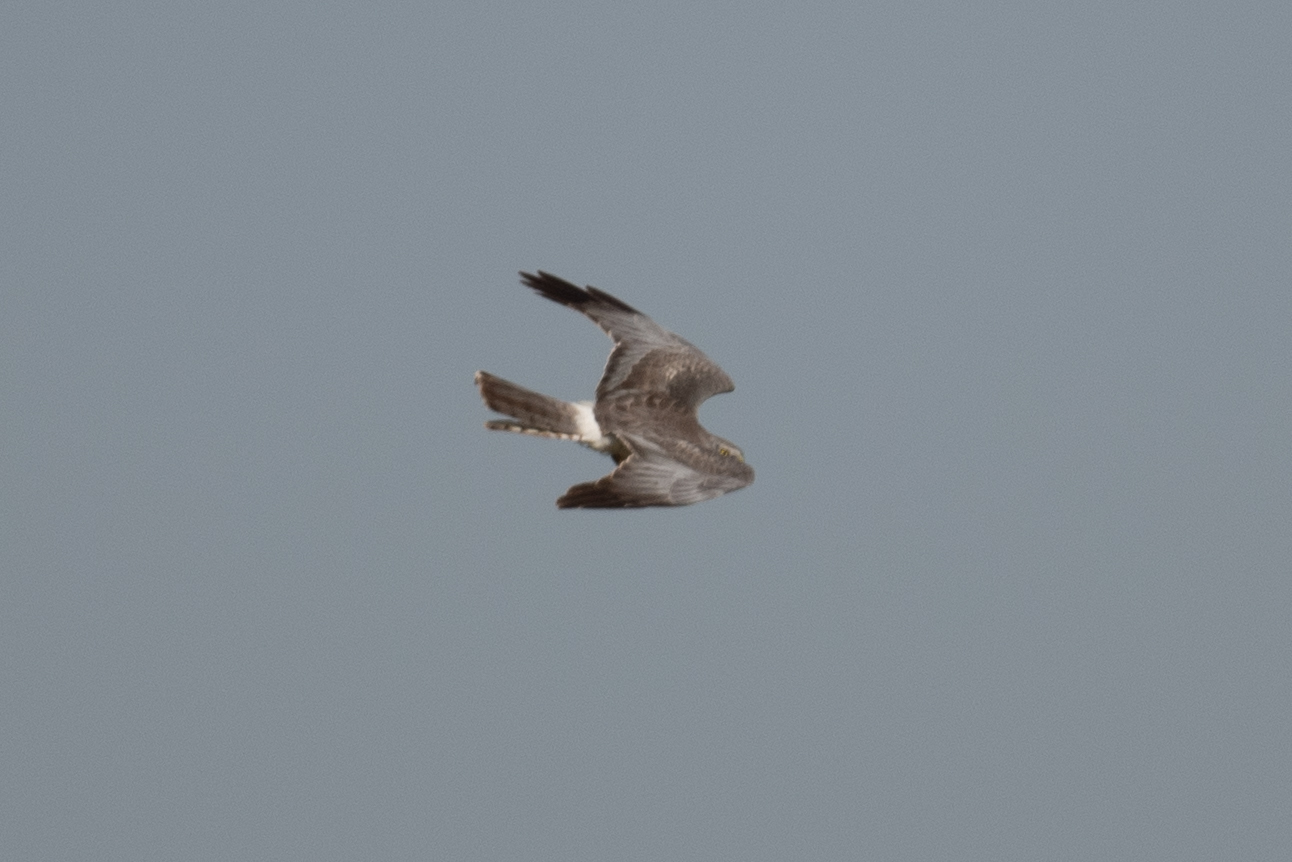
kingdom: Animalia
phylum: Chordata
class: Aves
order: Accipitriformes
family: Accipitridae
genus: Circus
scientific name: Circus cyaneus
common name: Hen harrier
